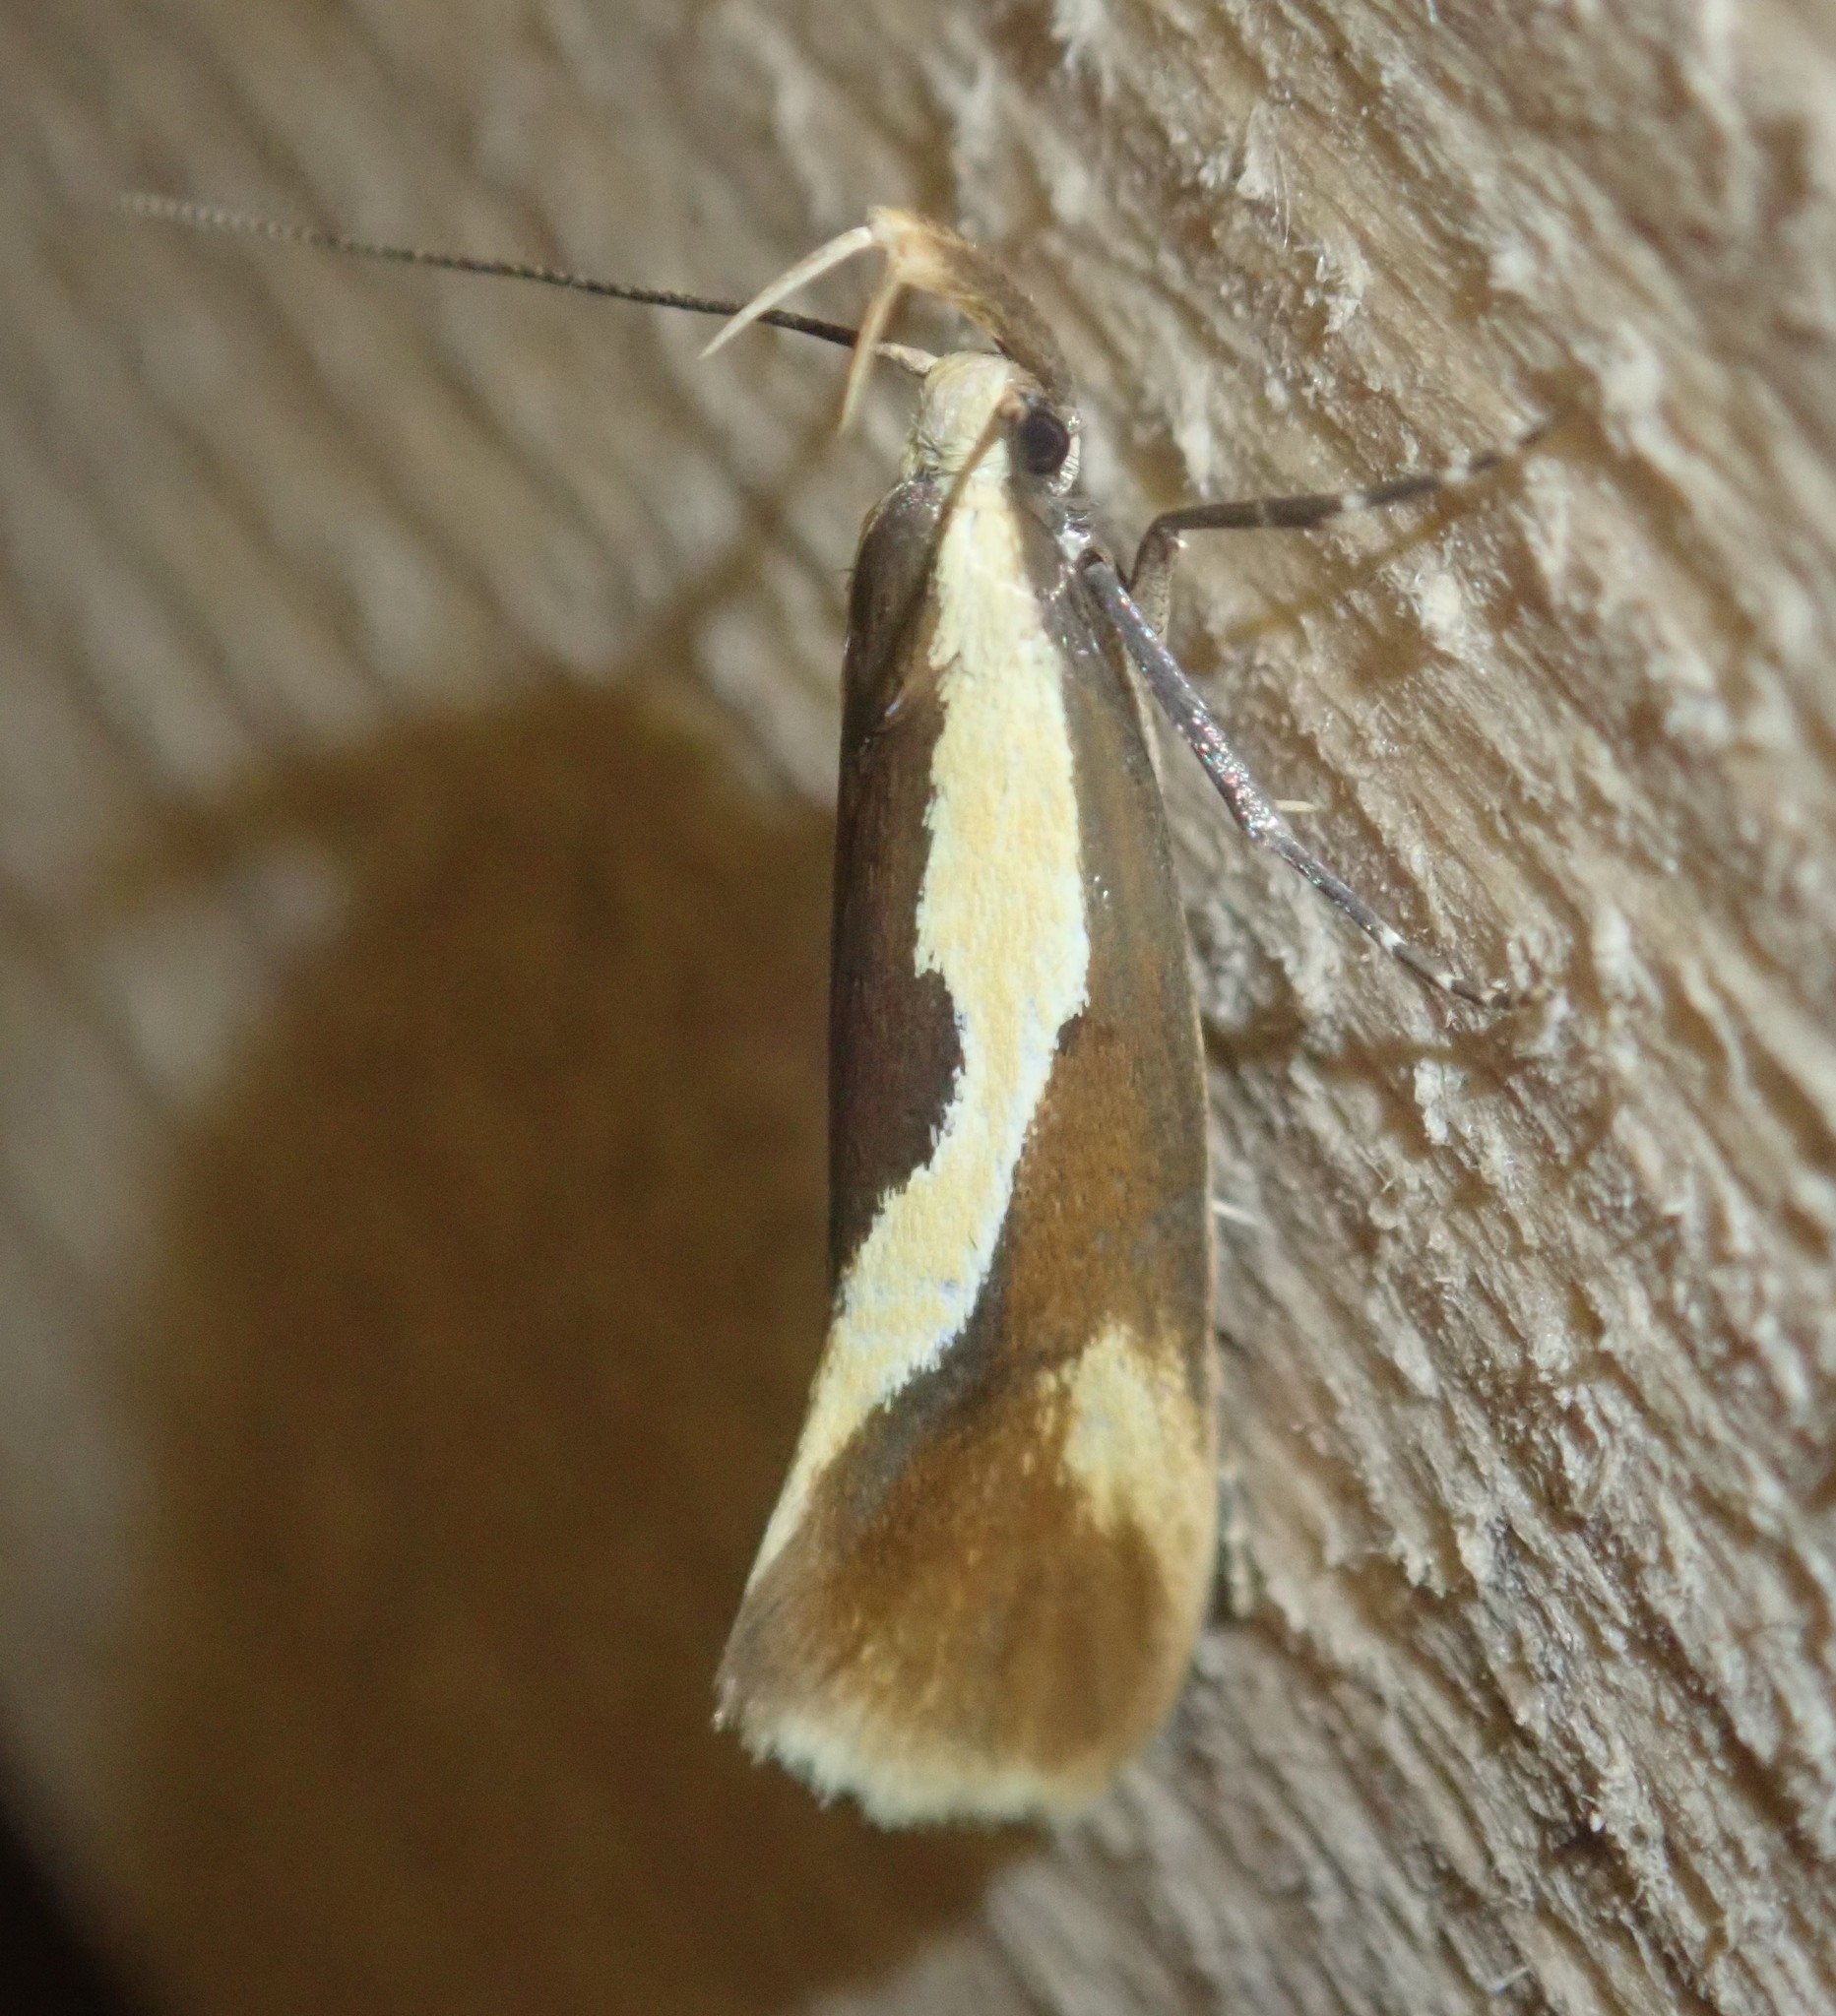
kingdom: Animalia
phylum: Arthropoda
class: Insecta
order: Lepidoptera
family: Oecophoridae
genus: Harpella
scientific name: Harpella forficella
